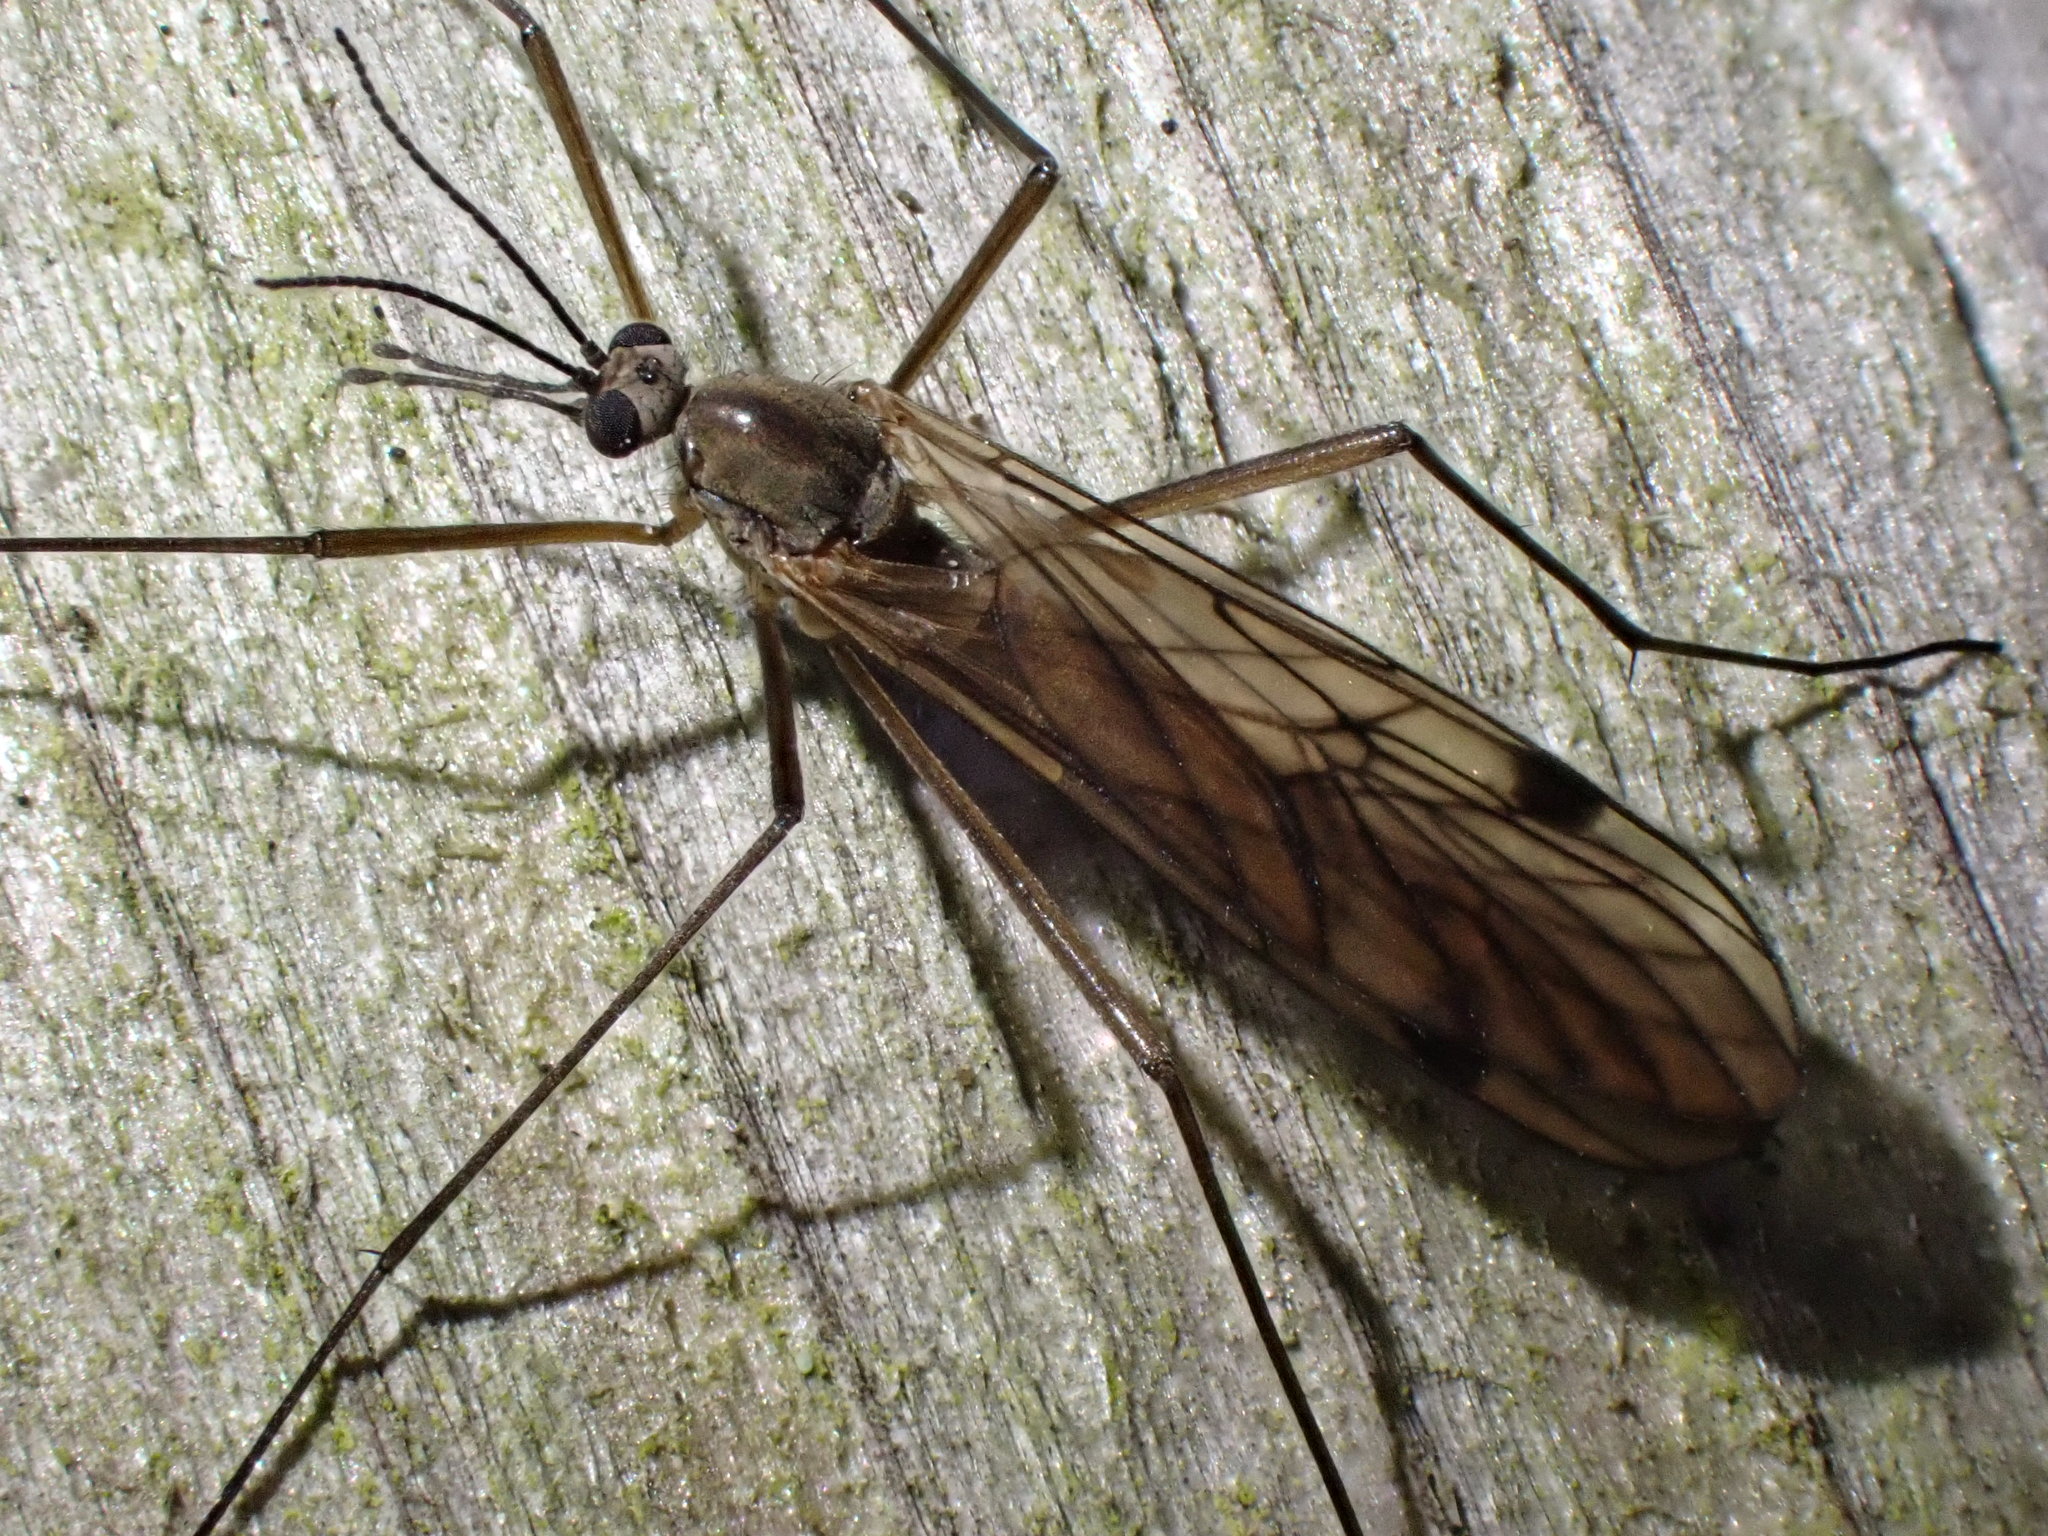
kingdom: Animalia
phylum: Arthropoda
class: Insecta
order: Diptera
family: Pachyneuridae
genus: Cramptonomyia
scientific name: Cramptonomyia spenceri
